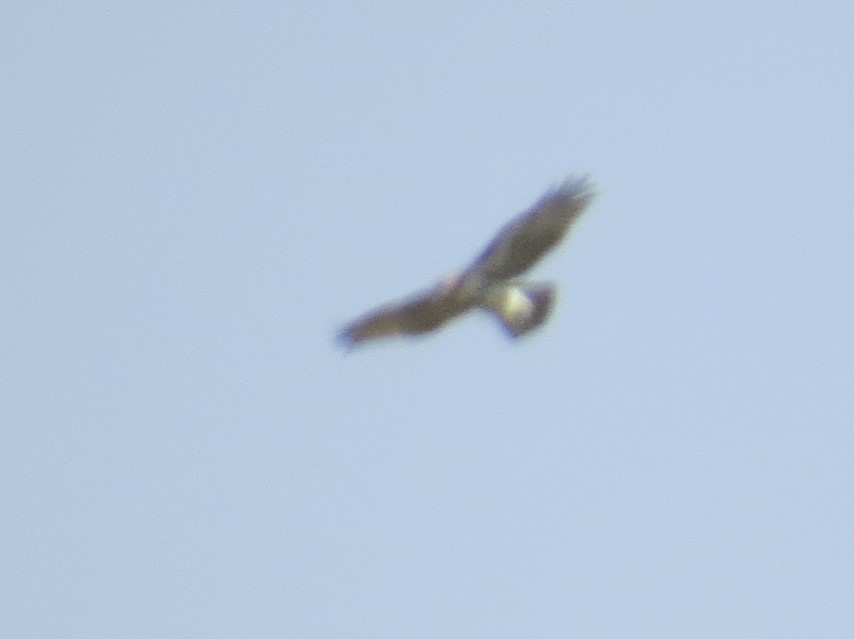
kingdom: Animalia
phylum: Chordata
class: Aves
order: Accipitriformes
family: Accipitridae
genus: Buteo
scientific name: Buteo jamaicensis
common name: Red-tailed hawk
